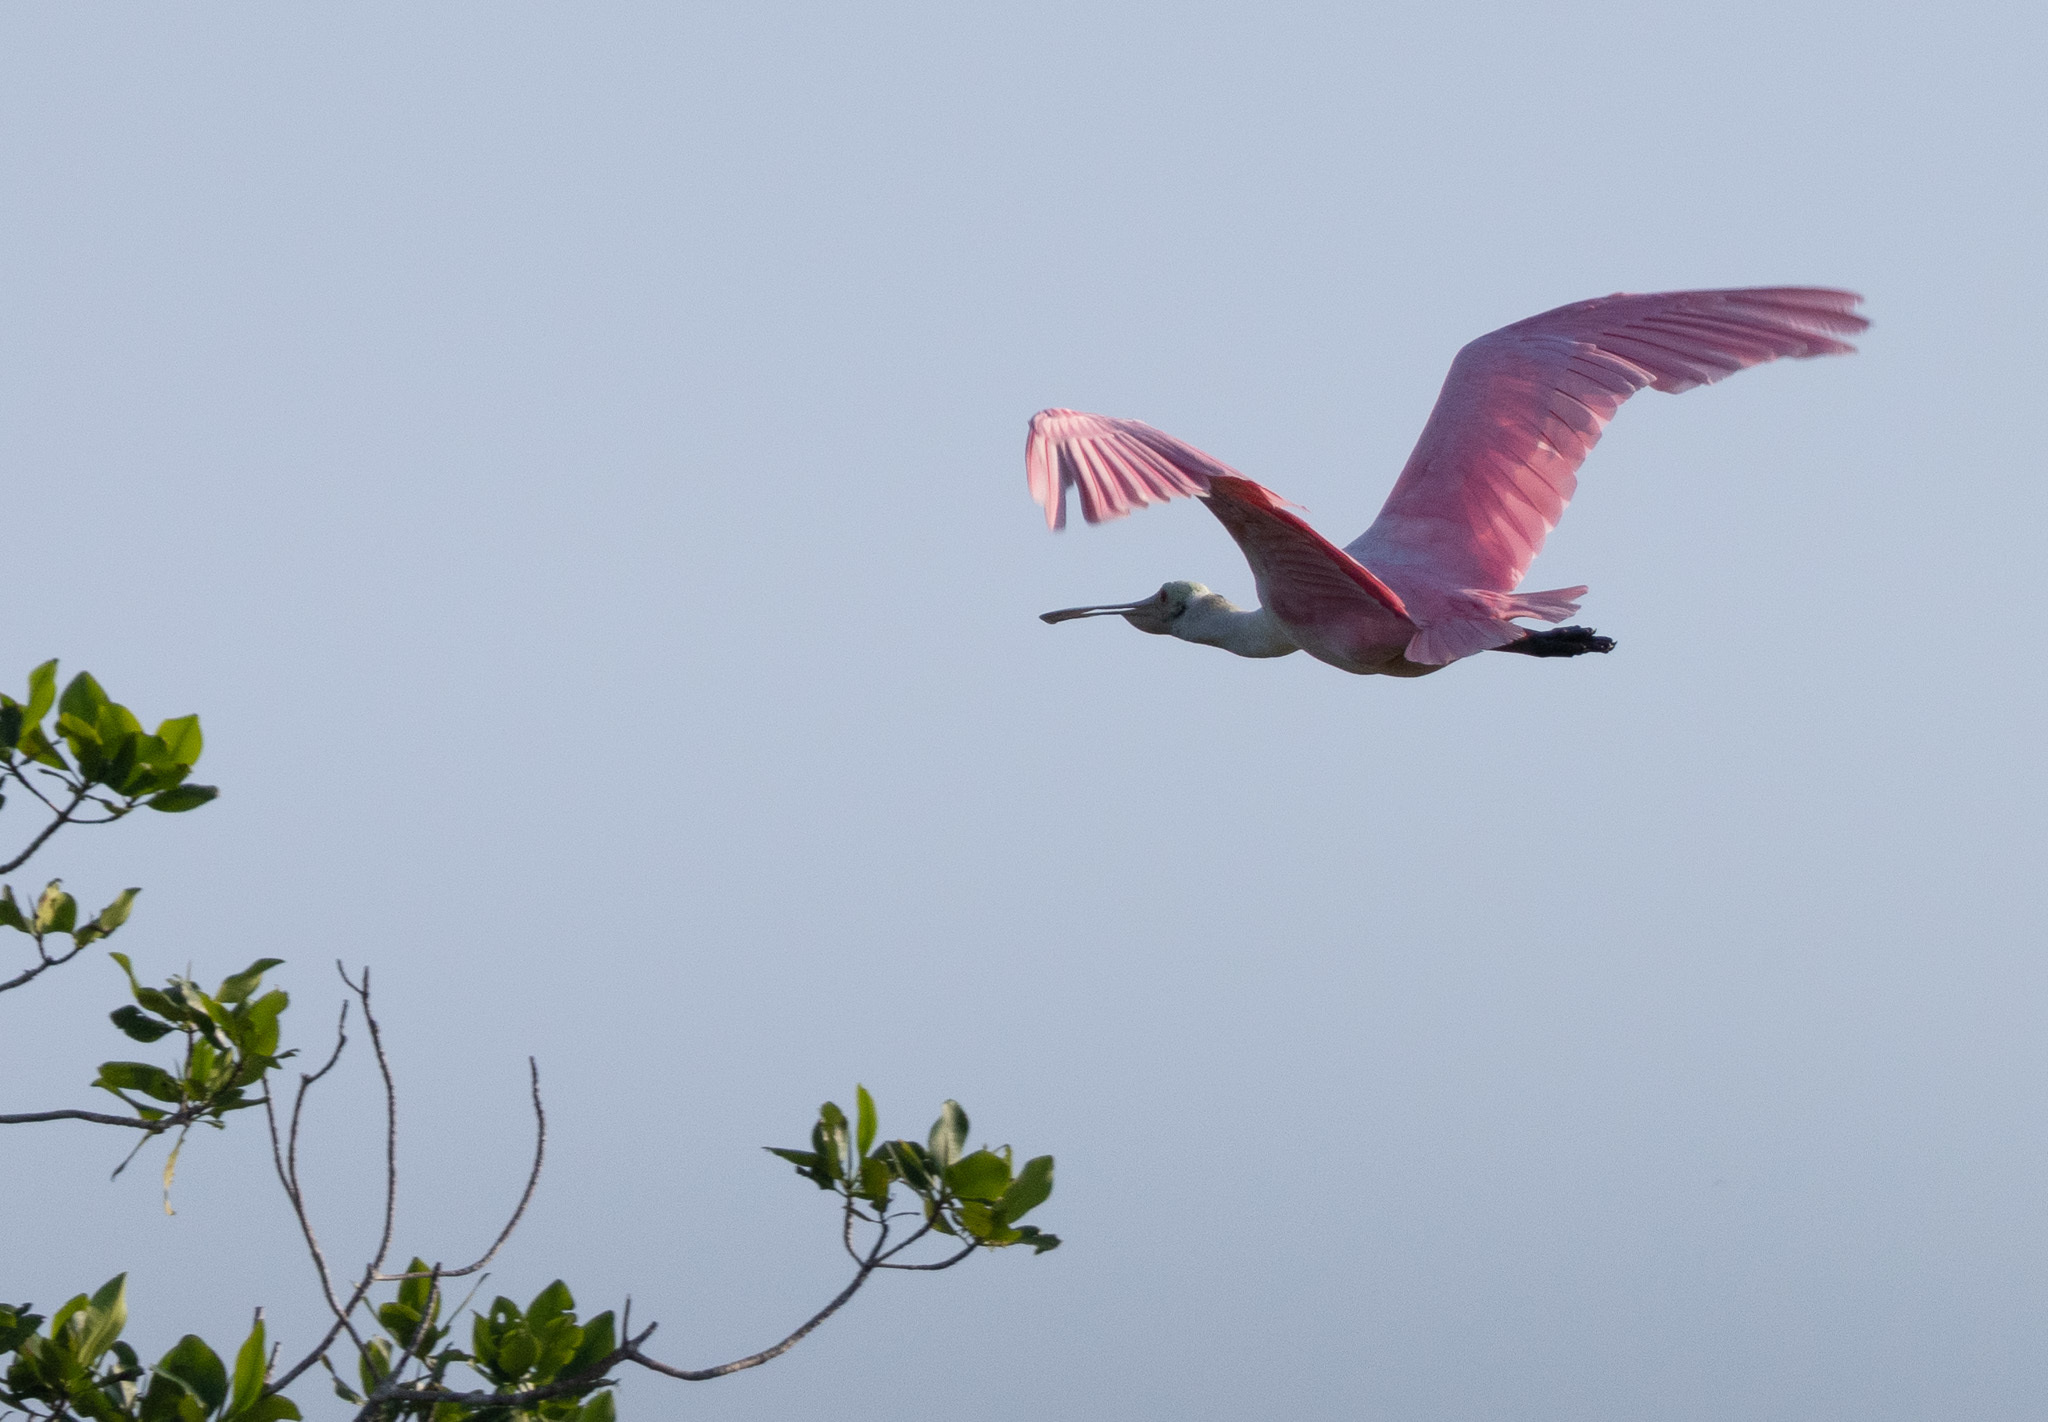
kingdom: Animalia
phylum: Chordata
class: Aves
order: Pelecaniformes
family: Threskiornithidae
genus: Platalea
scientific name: Platalea ajaja
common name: Roseate spoonbill
